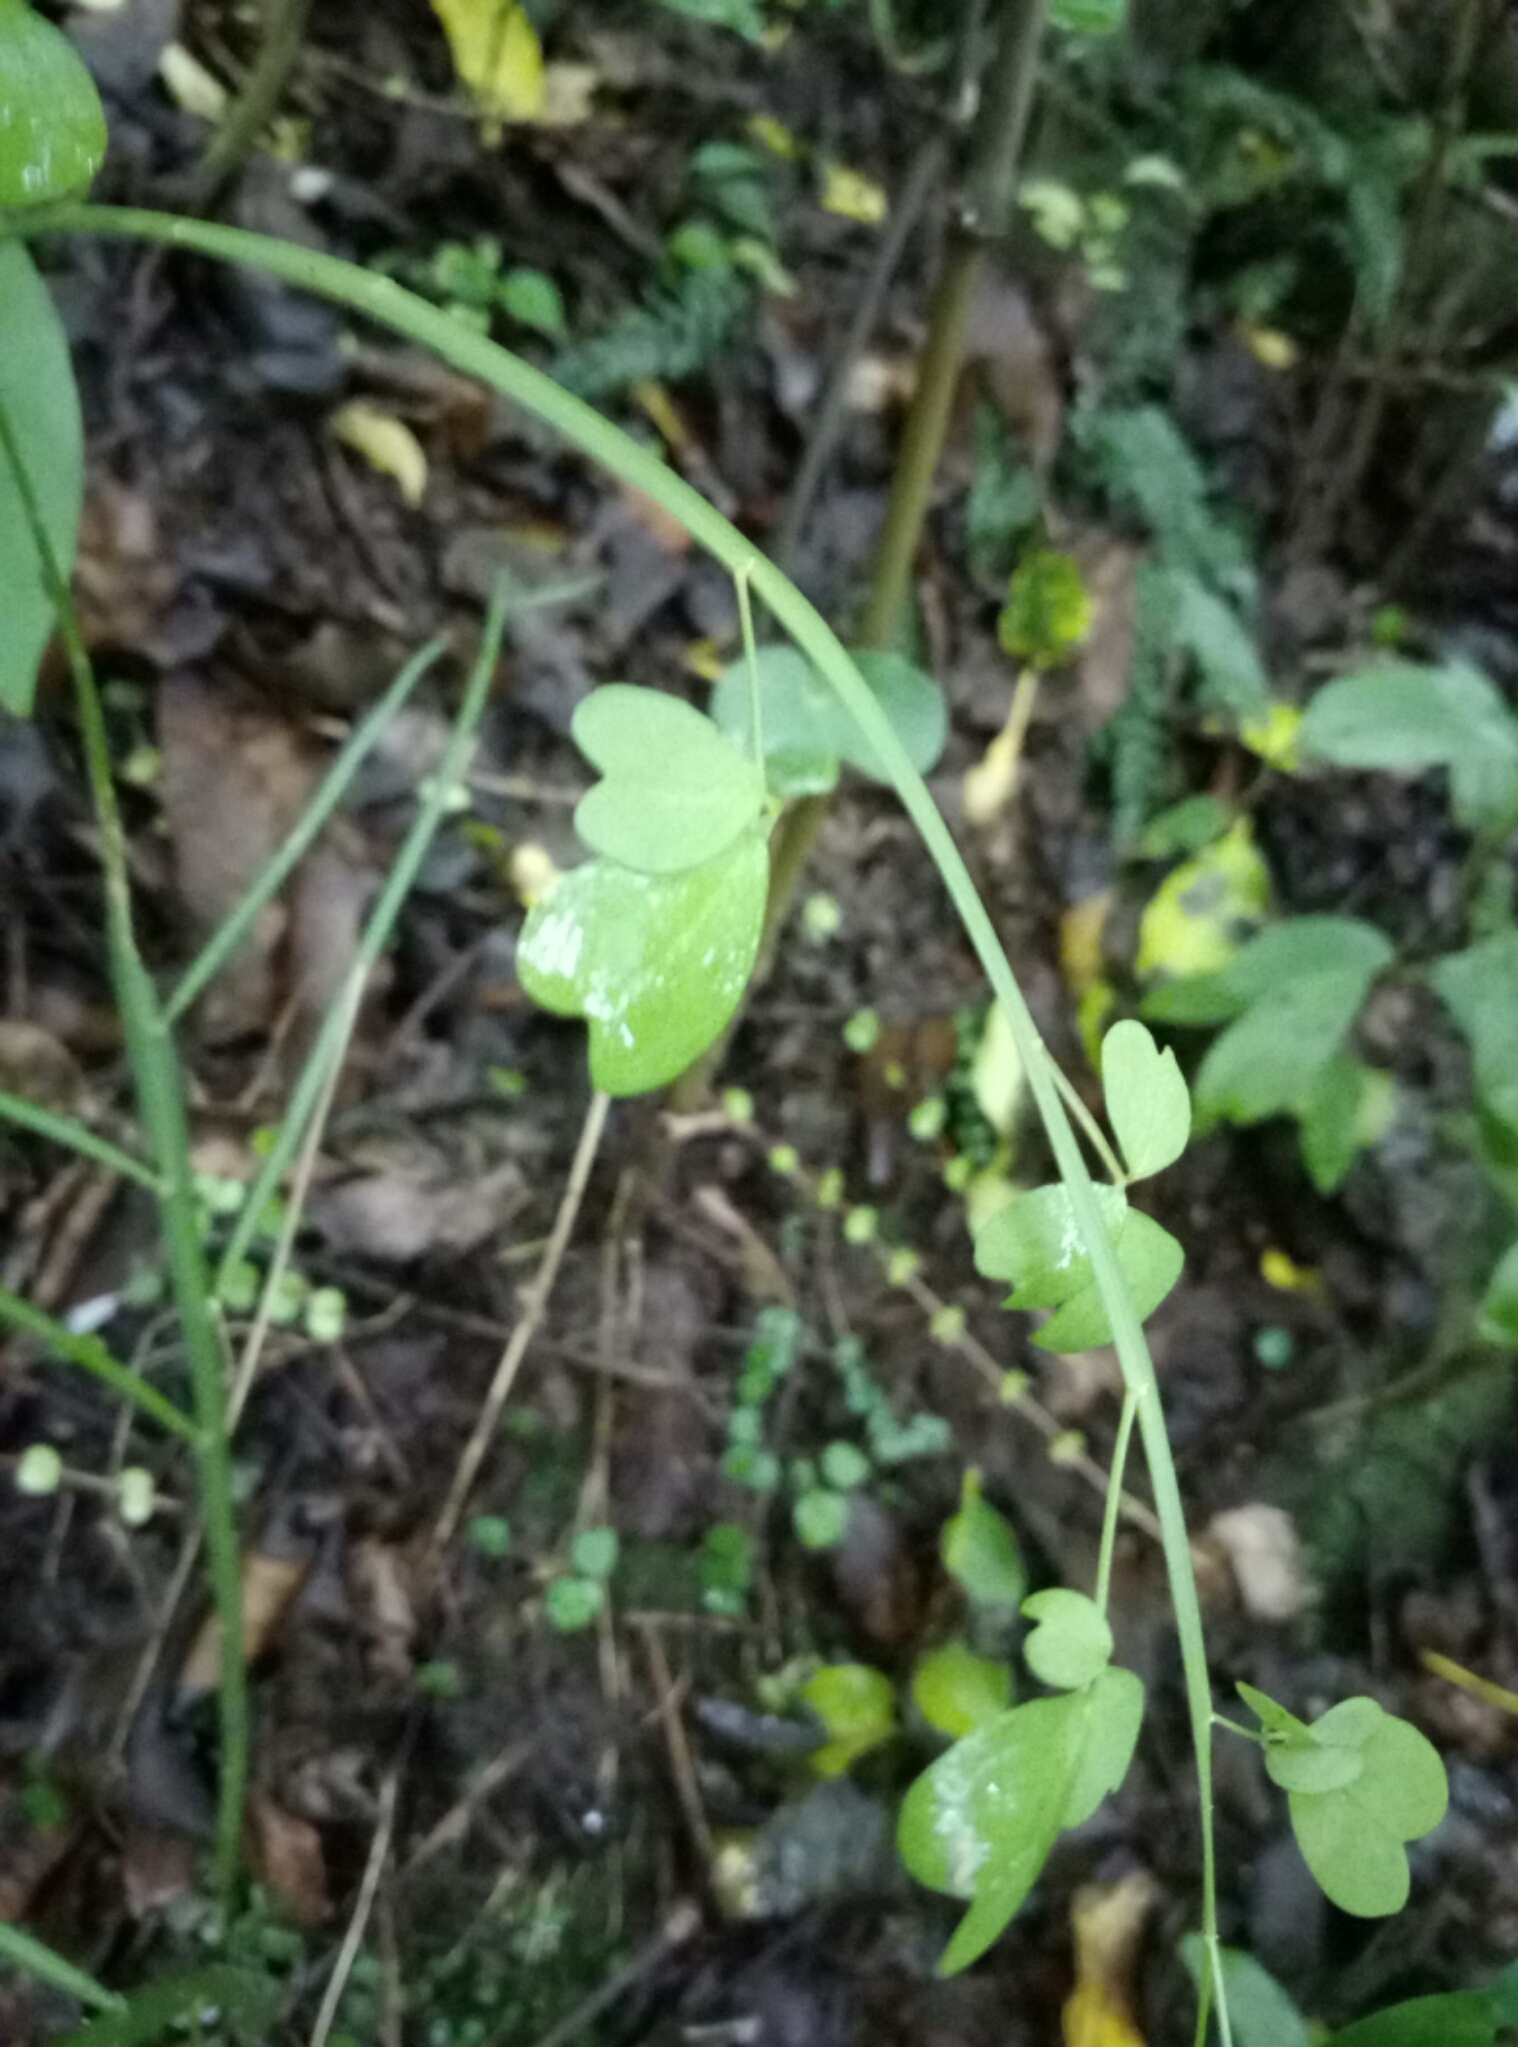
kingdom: Plantae
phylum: Tracheophyta
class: Magnoliopsida
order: Fabales
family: Fabaceae
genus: Carmichaelia
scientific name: Carmichaelia australis
